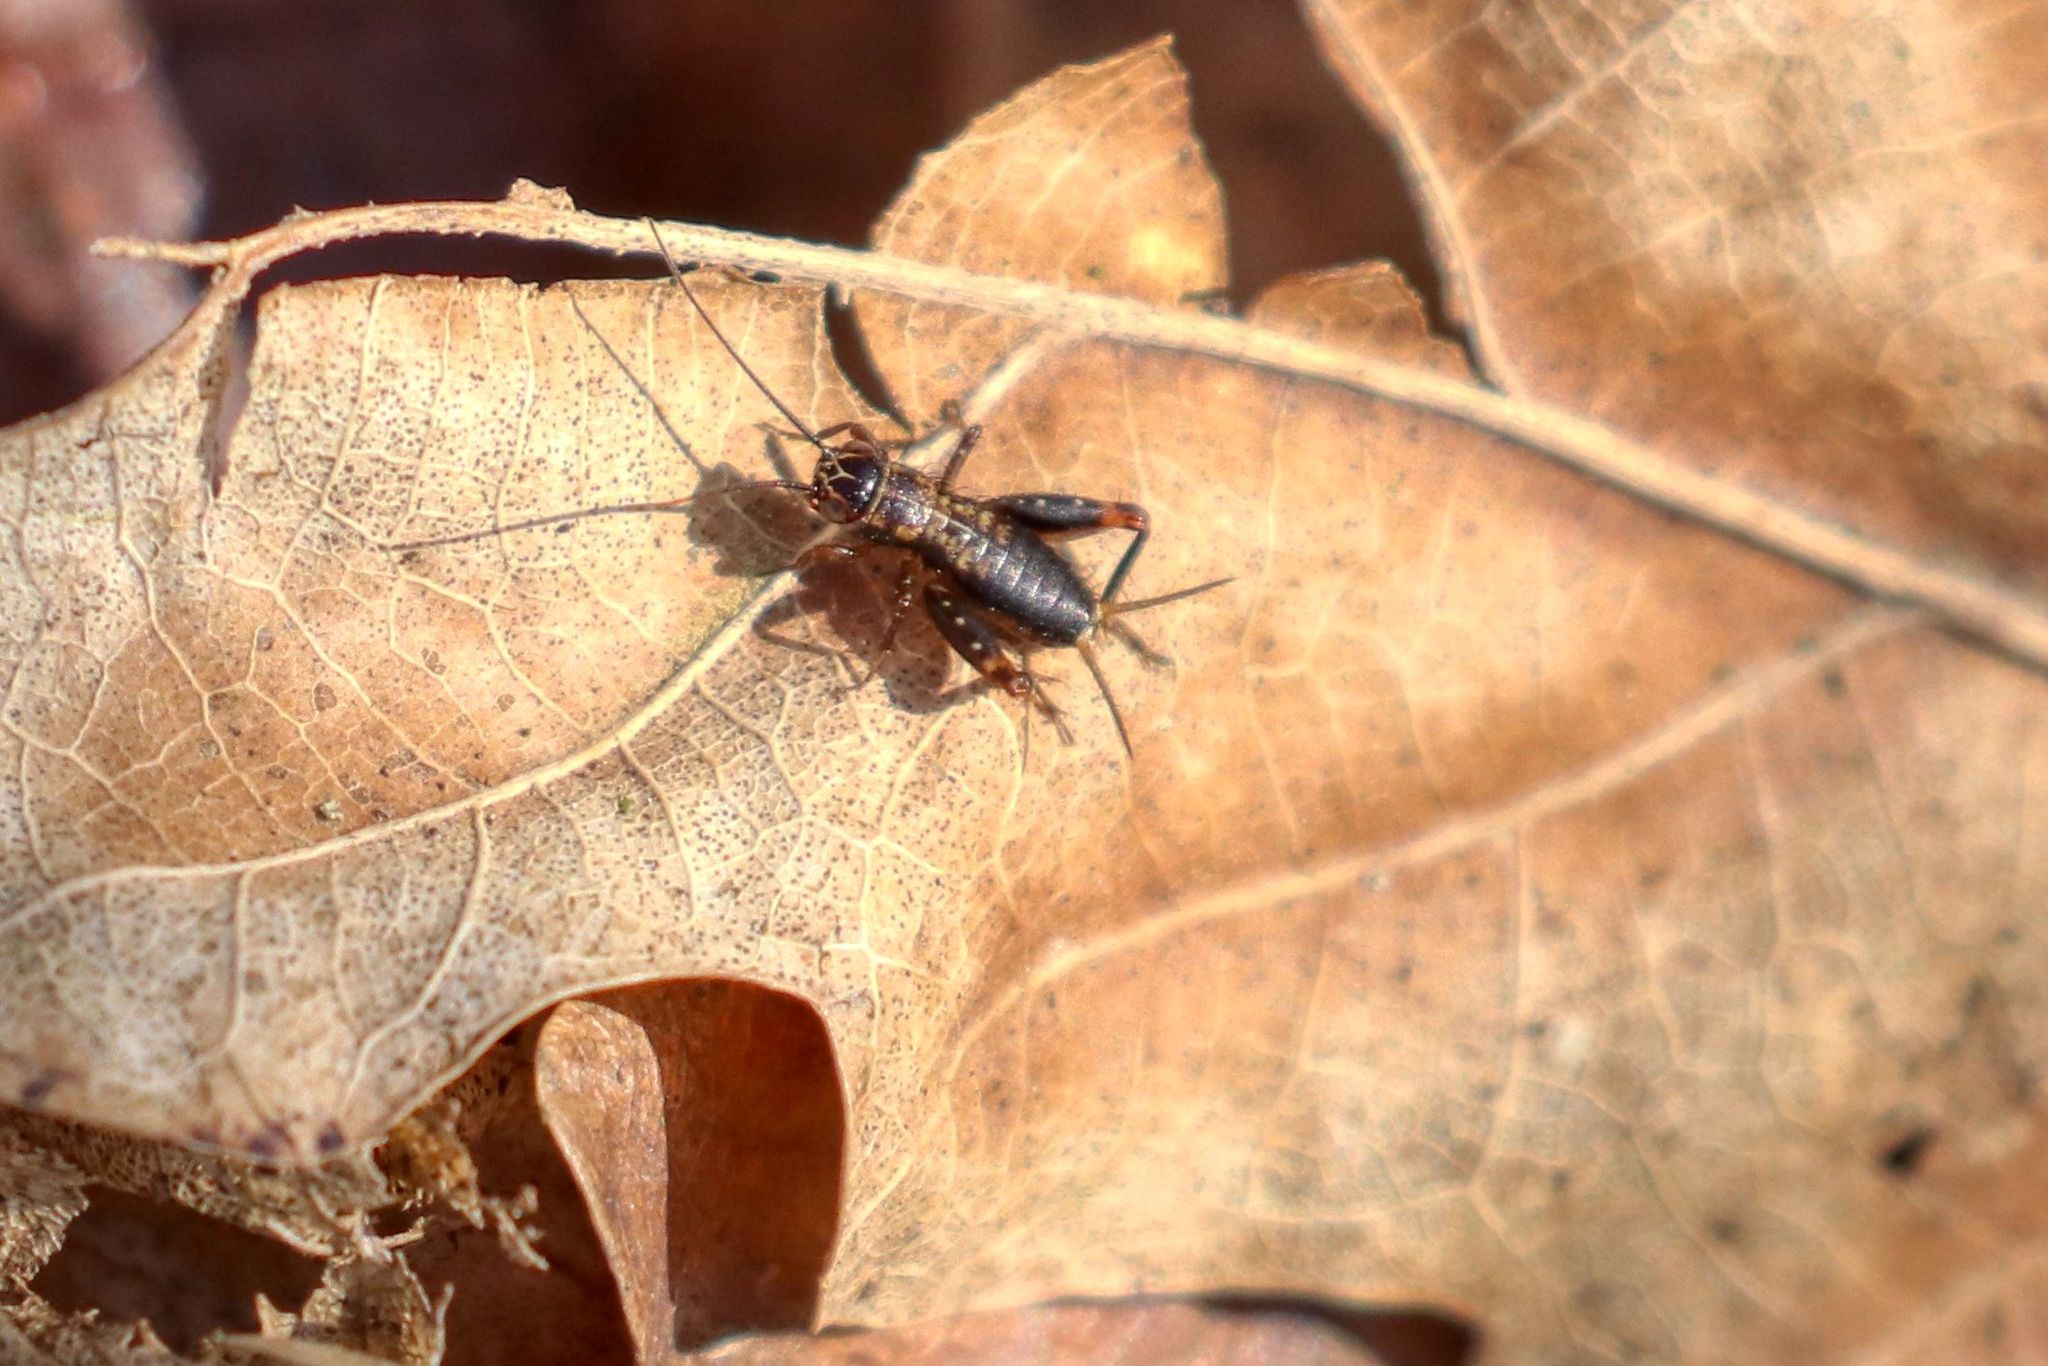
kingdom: Animalia
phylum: Arthropoda
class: Insecta
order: Orthoptera
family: Trigonidiidae
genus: Nemobius
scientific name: Nemobius sylvestris
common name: Wood-cricket
